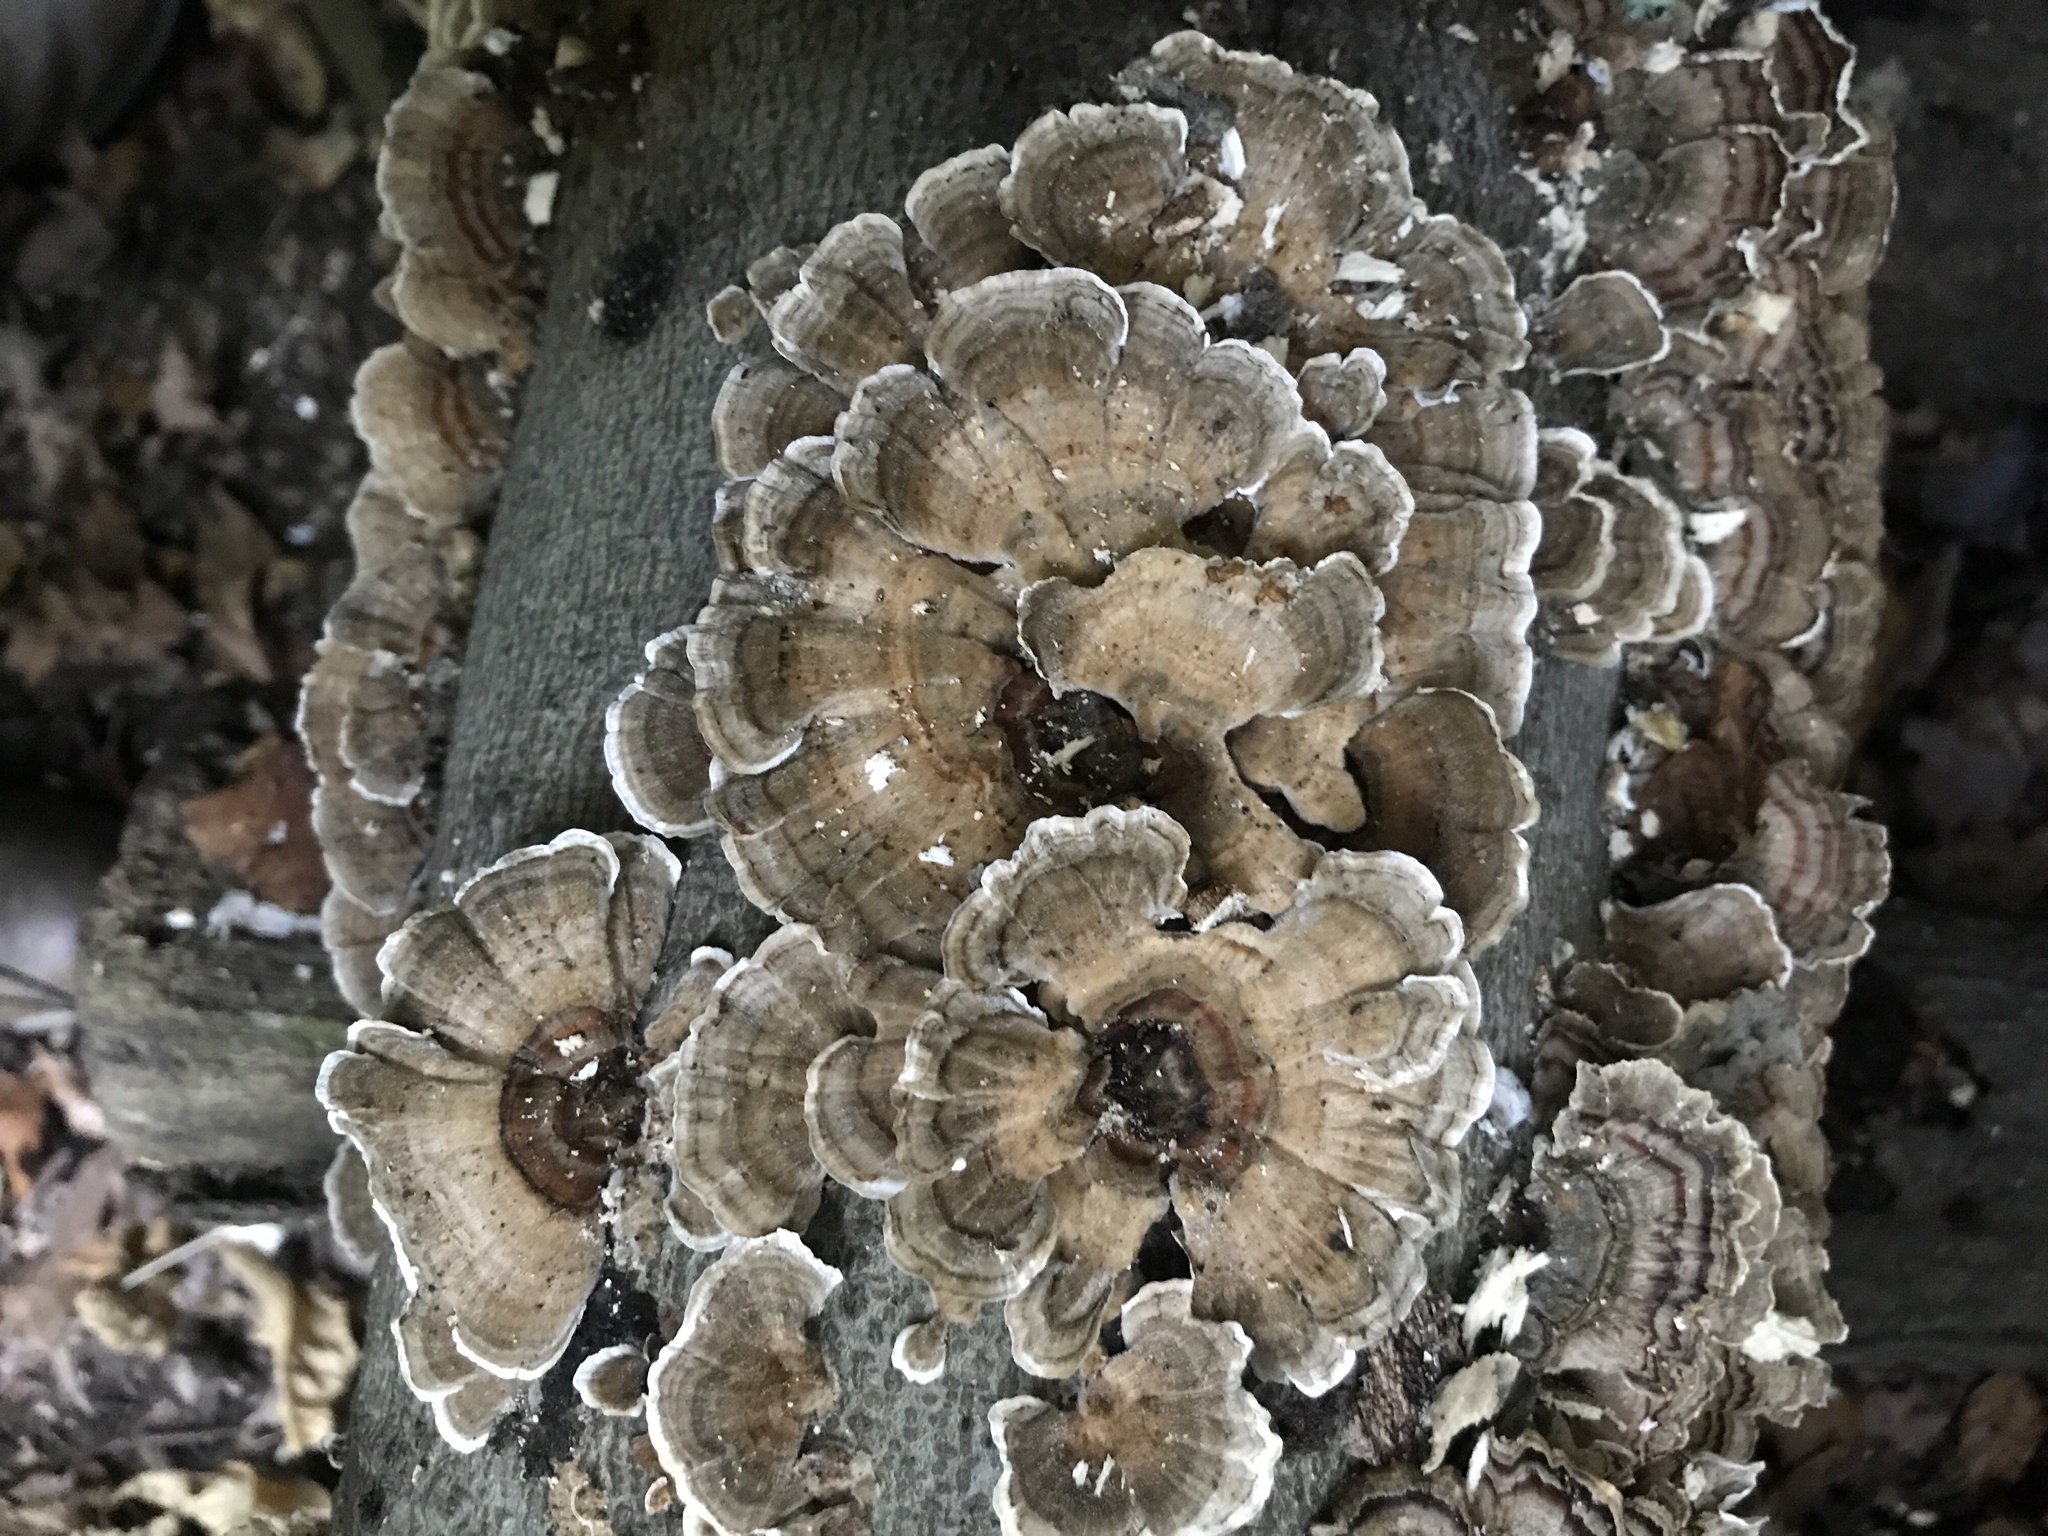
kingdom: Fungi
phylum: Basidiomycota
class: Agaricomycetes
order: Polyporales
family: Polyporaceae
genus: Trametes
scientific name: Trametes versicolor
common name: Turkeytail
